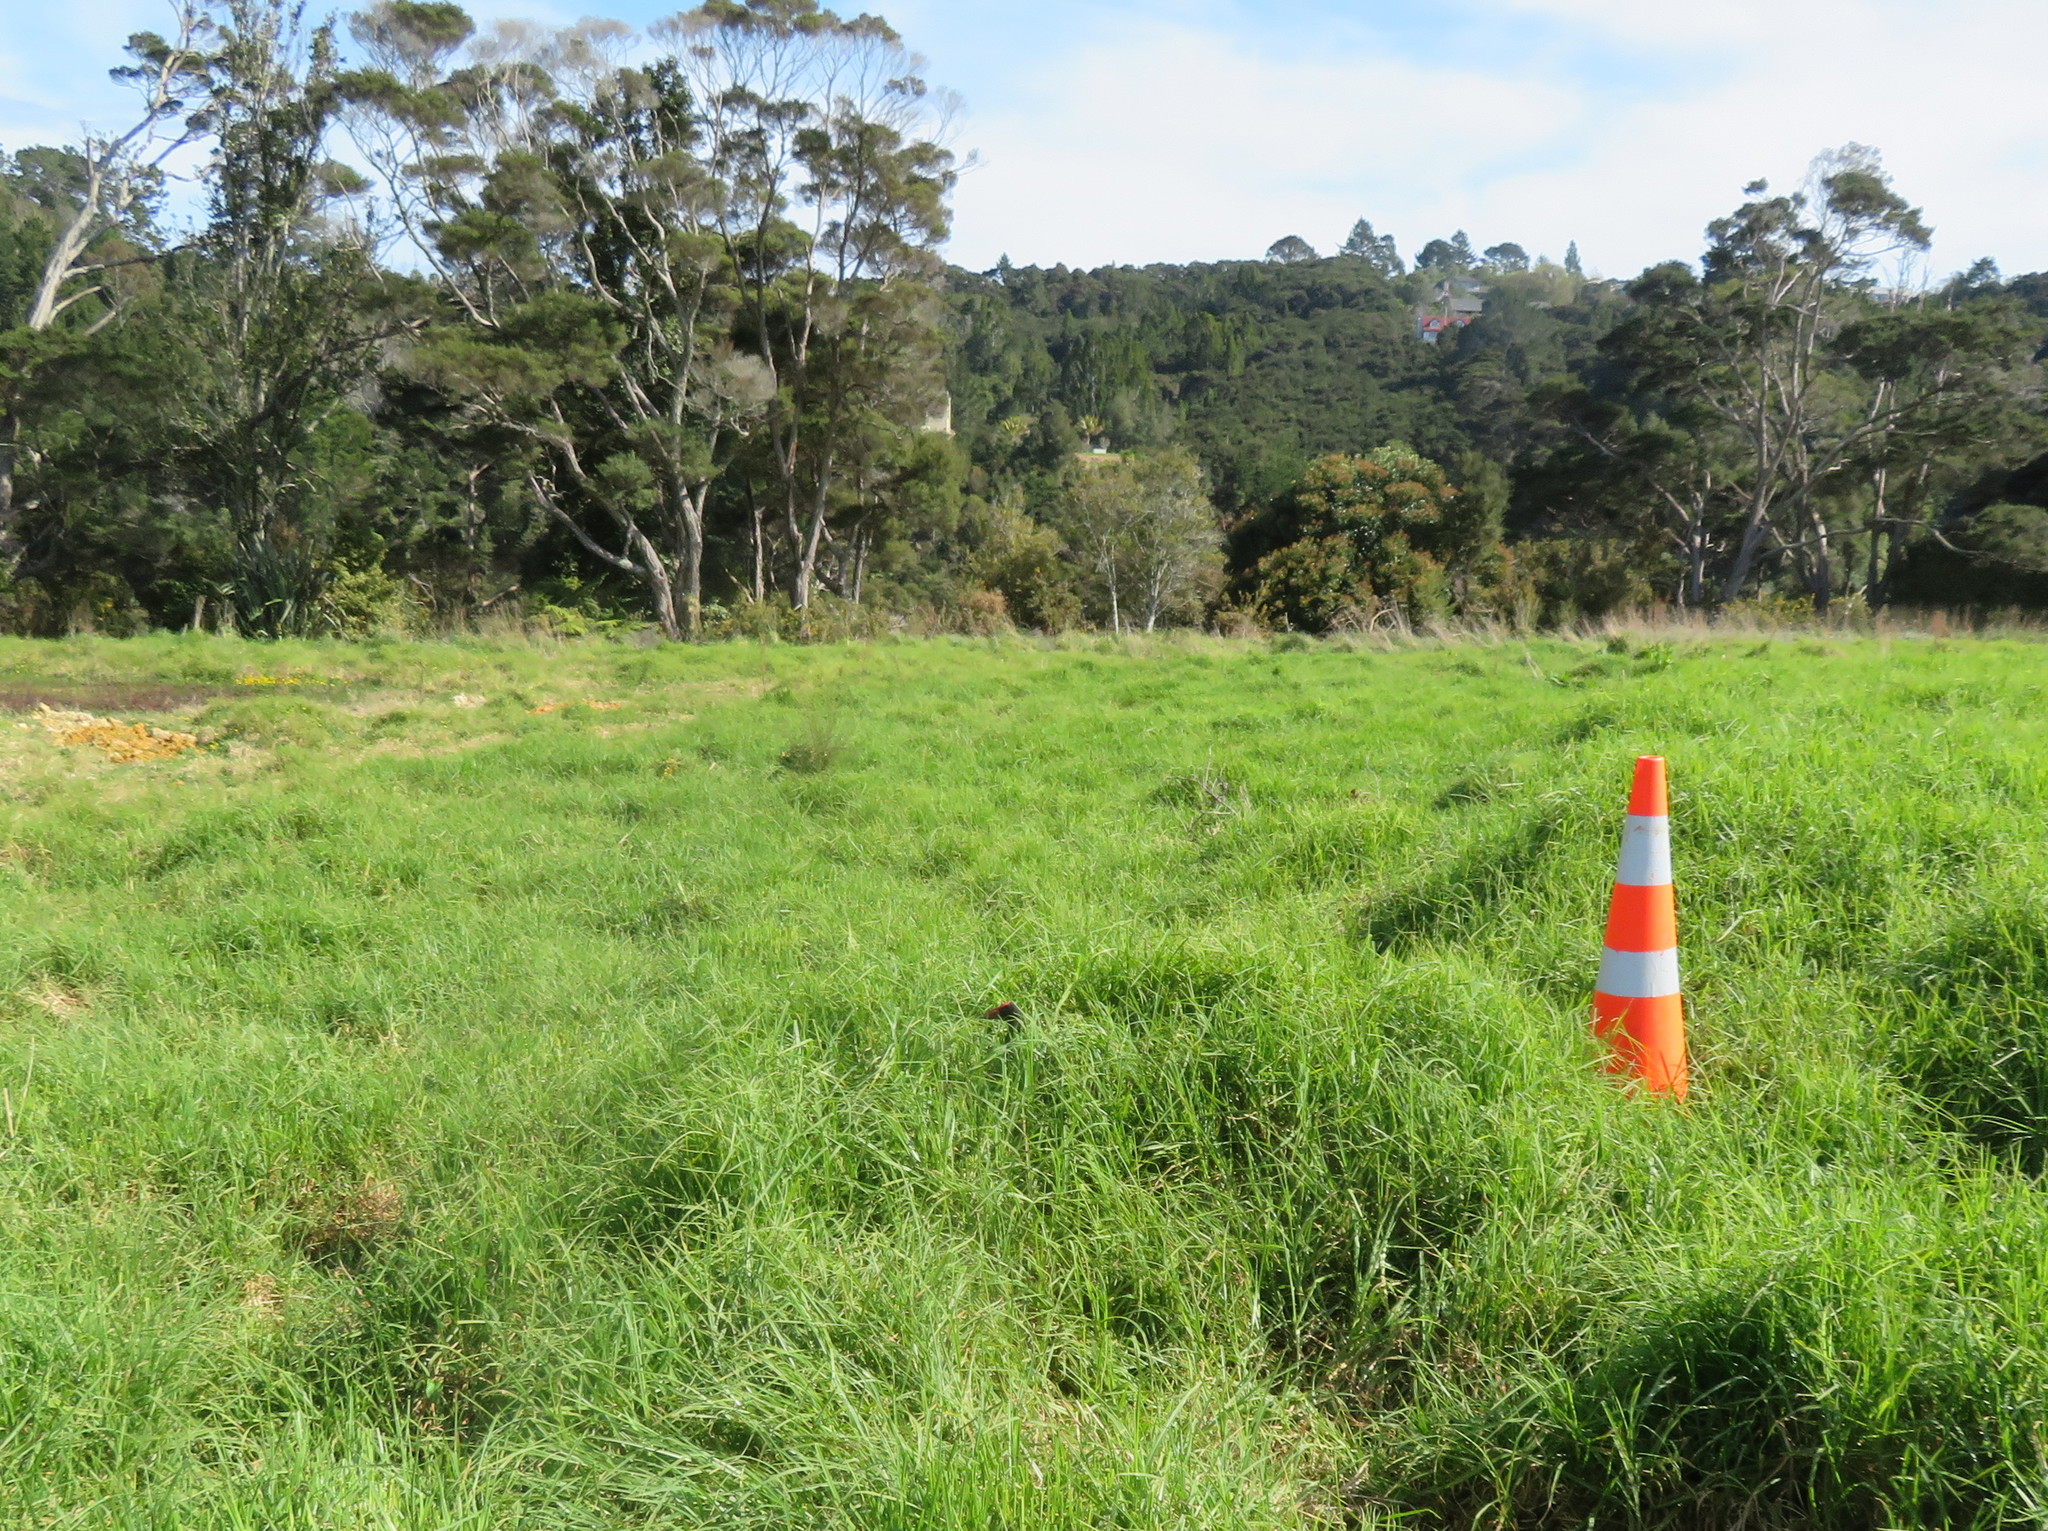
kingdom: Animalia
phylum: Chordata
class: Aves
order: Gruiformes
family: Rallidae
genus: Porphyrio
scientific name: Porphyrio melanotus
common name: Australasian swamphen
